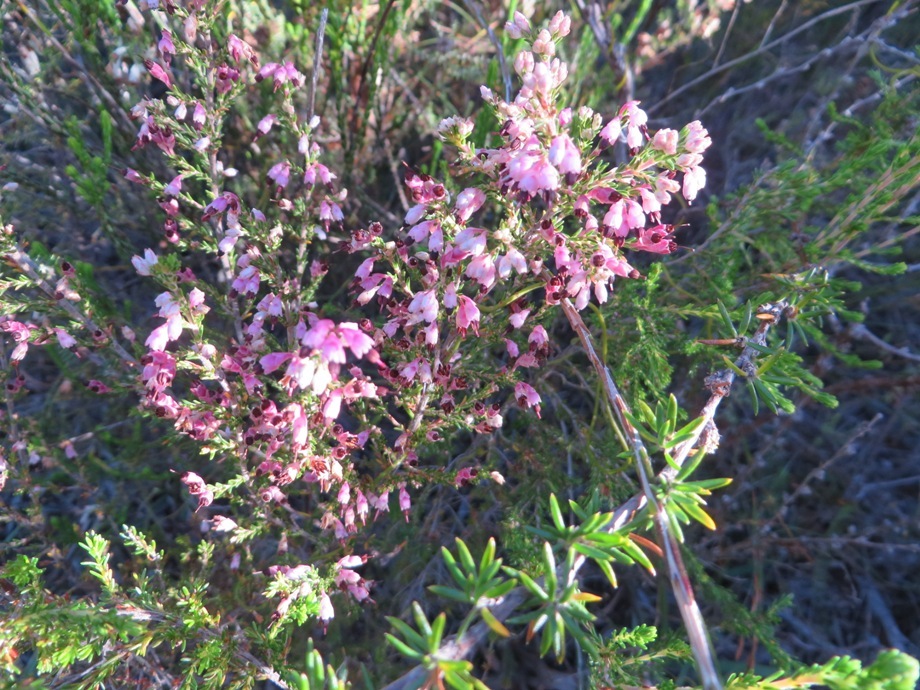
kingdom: Plantae
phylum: Tracheophyta
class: Magnoliopsida
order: Ericales
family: Ericaceae
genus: Erica
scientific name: Erica placentiflora
